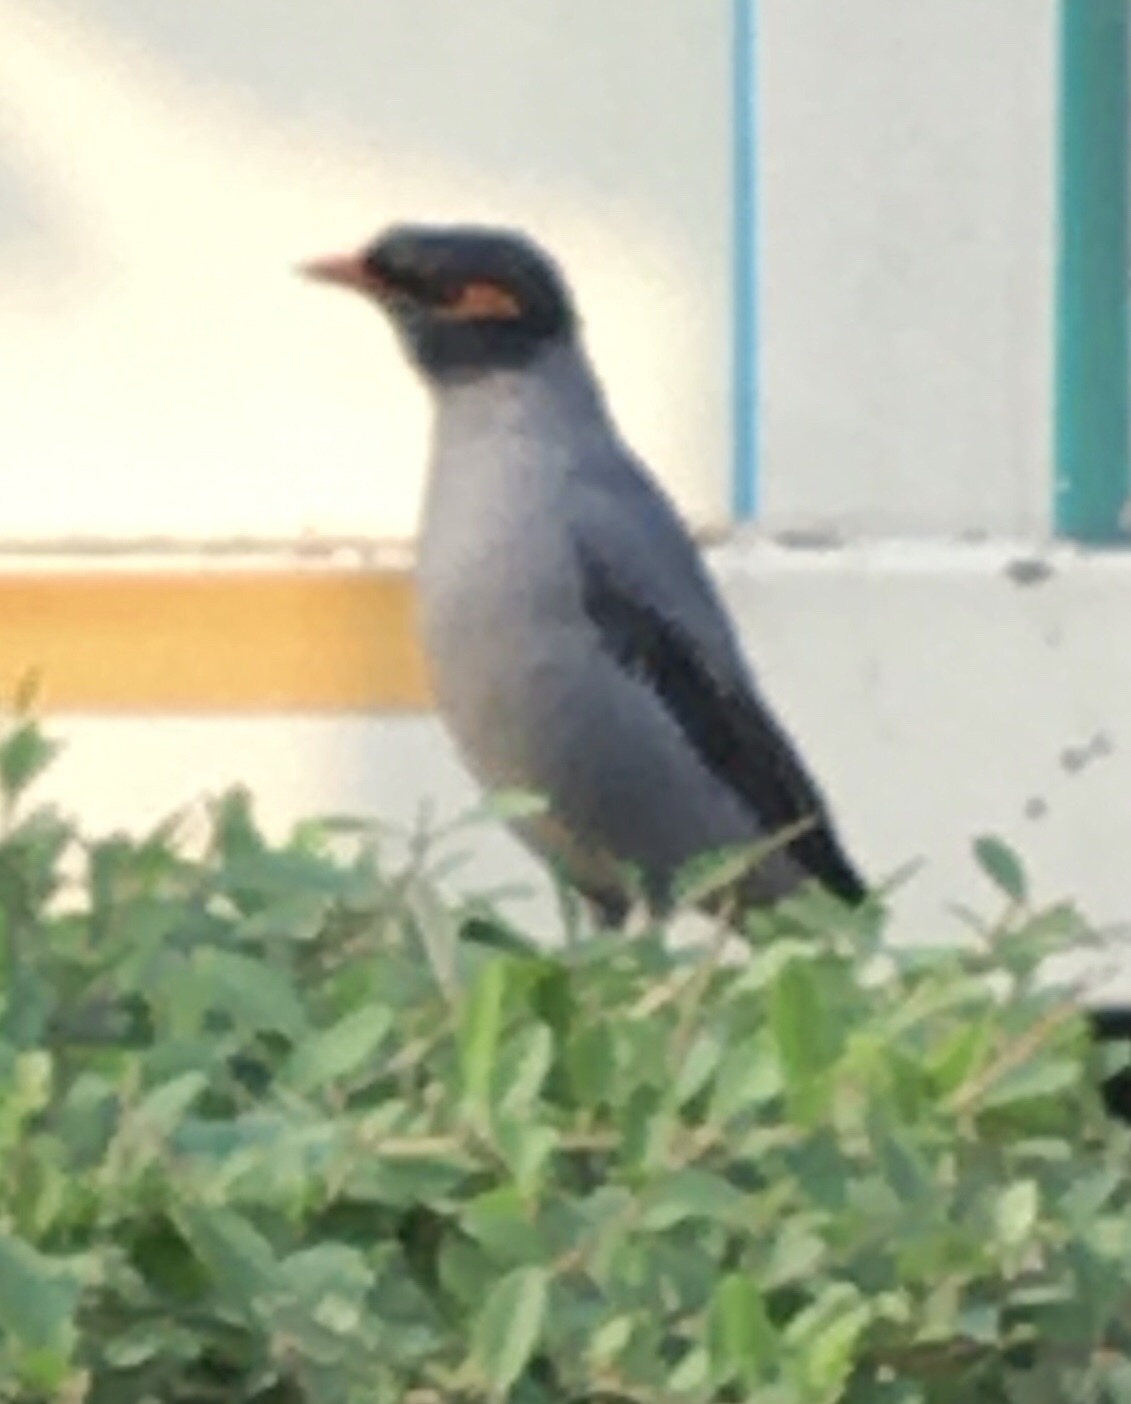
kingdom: Animalia
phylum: Chordata
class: Aves
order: Passeriformes
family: Sturnidae
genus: Acridotheres
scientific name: Acridotheres ginginianus
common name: Bank myna
